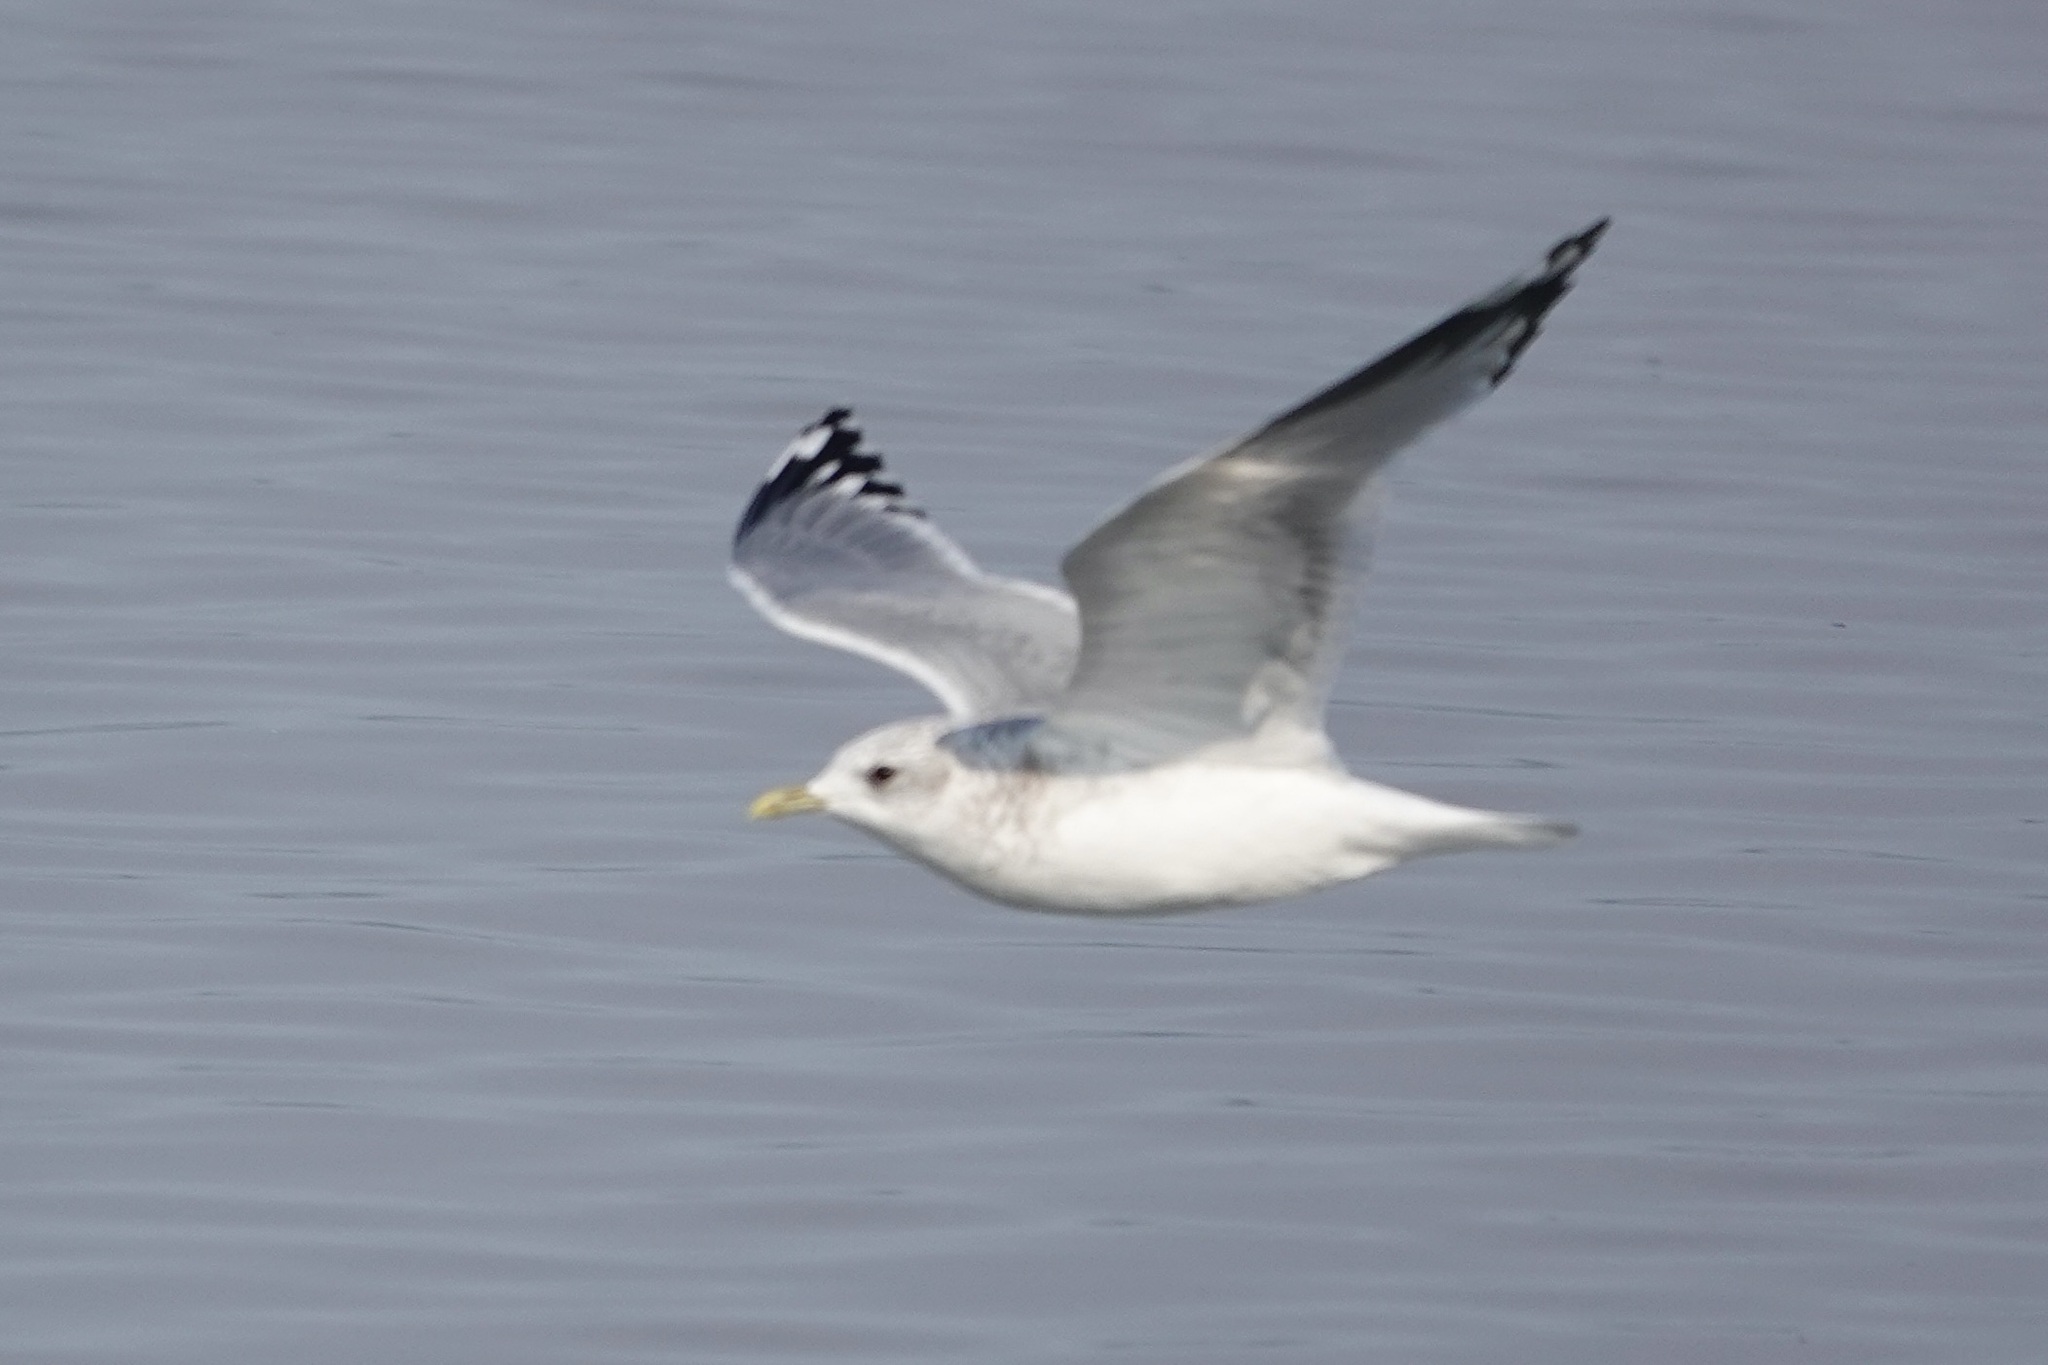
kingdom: Animalia
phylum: Chordata
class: Aves
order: Charadriiformes
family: Laridae
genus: Larus
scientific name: Larus brachyrhynchus
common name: Short-billed gull
